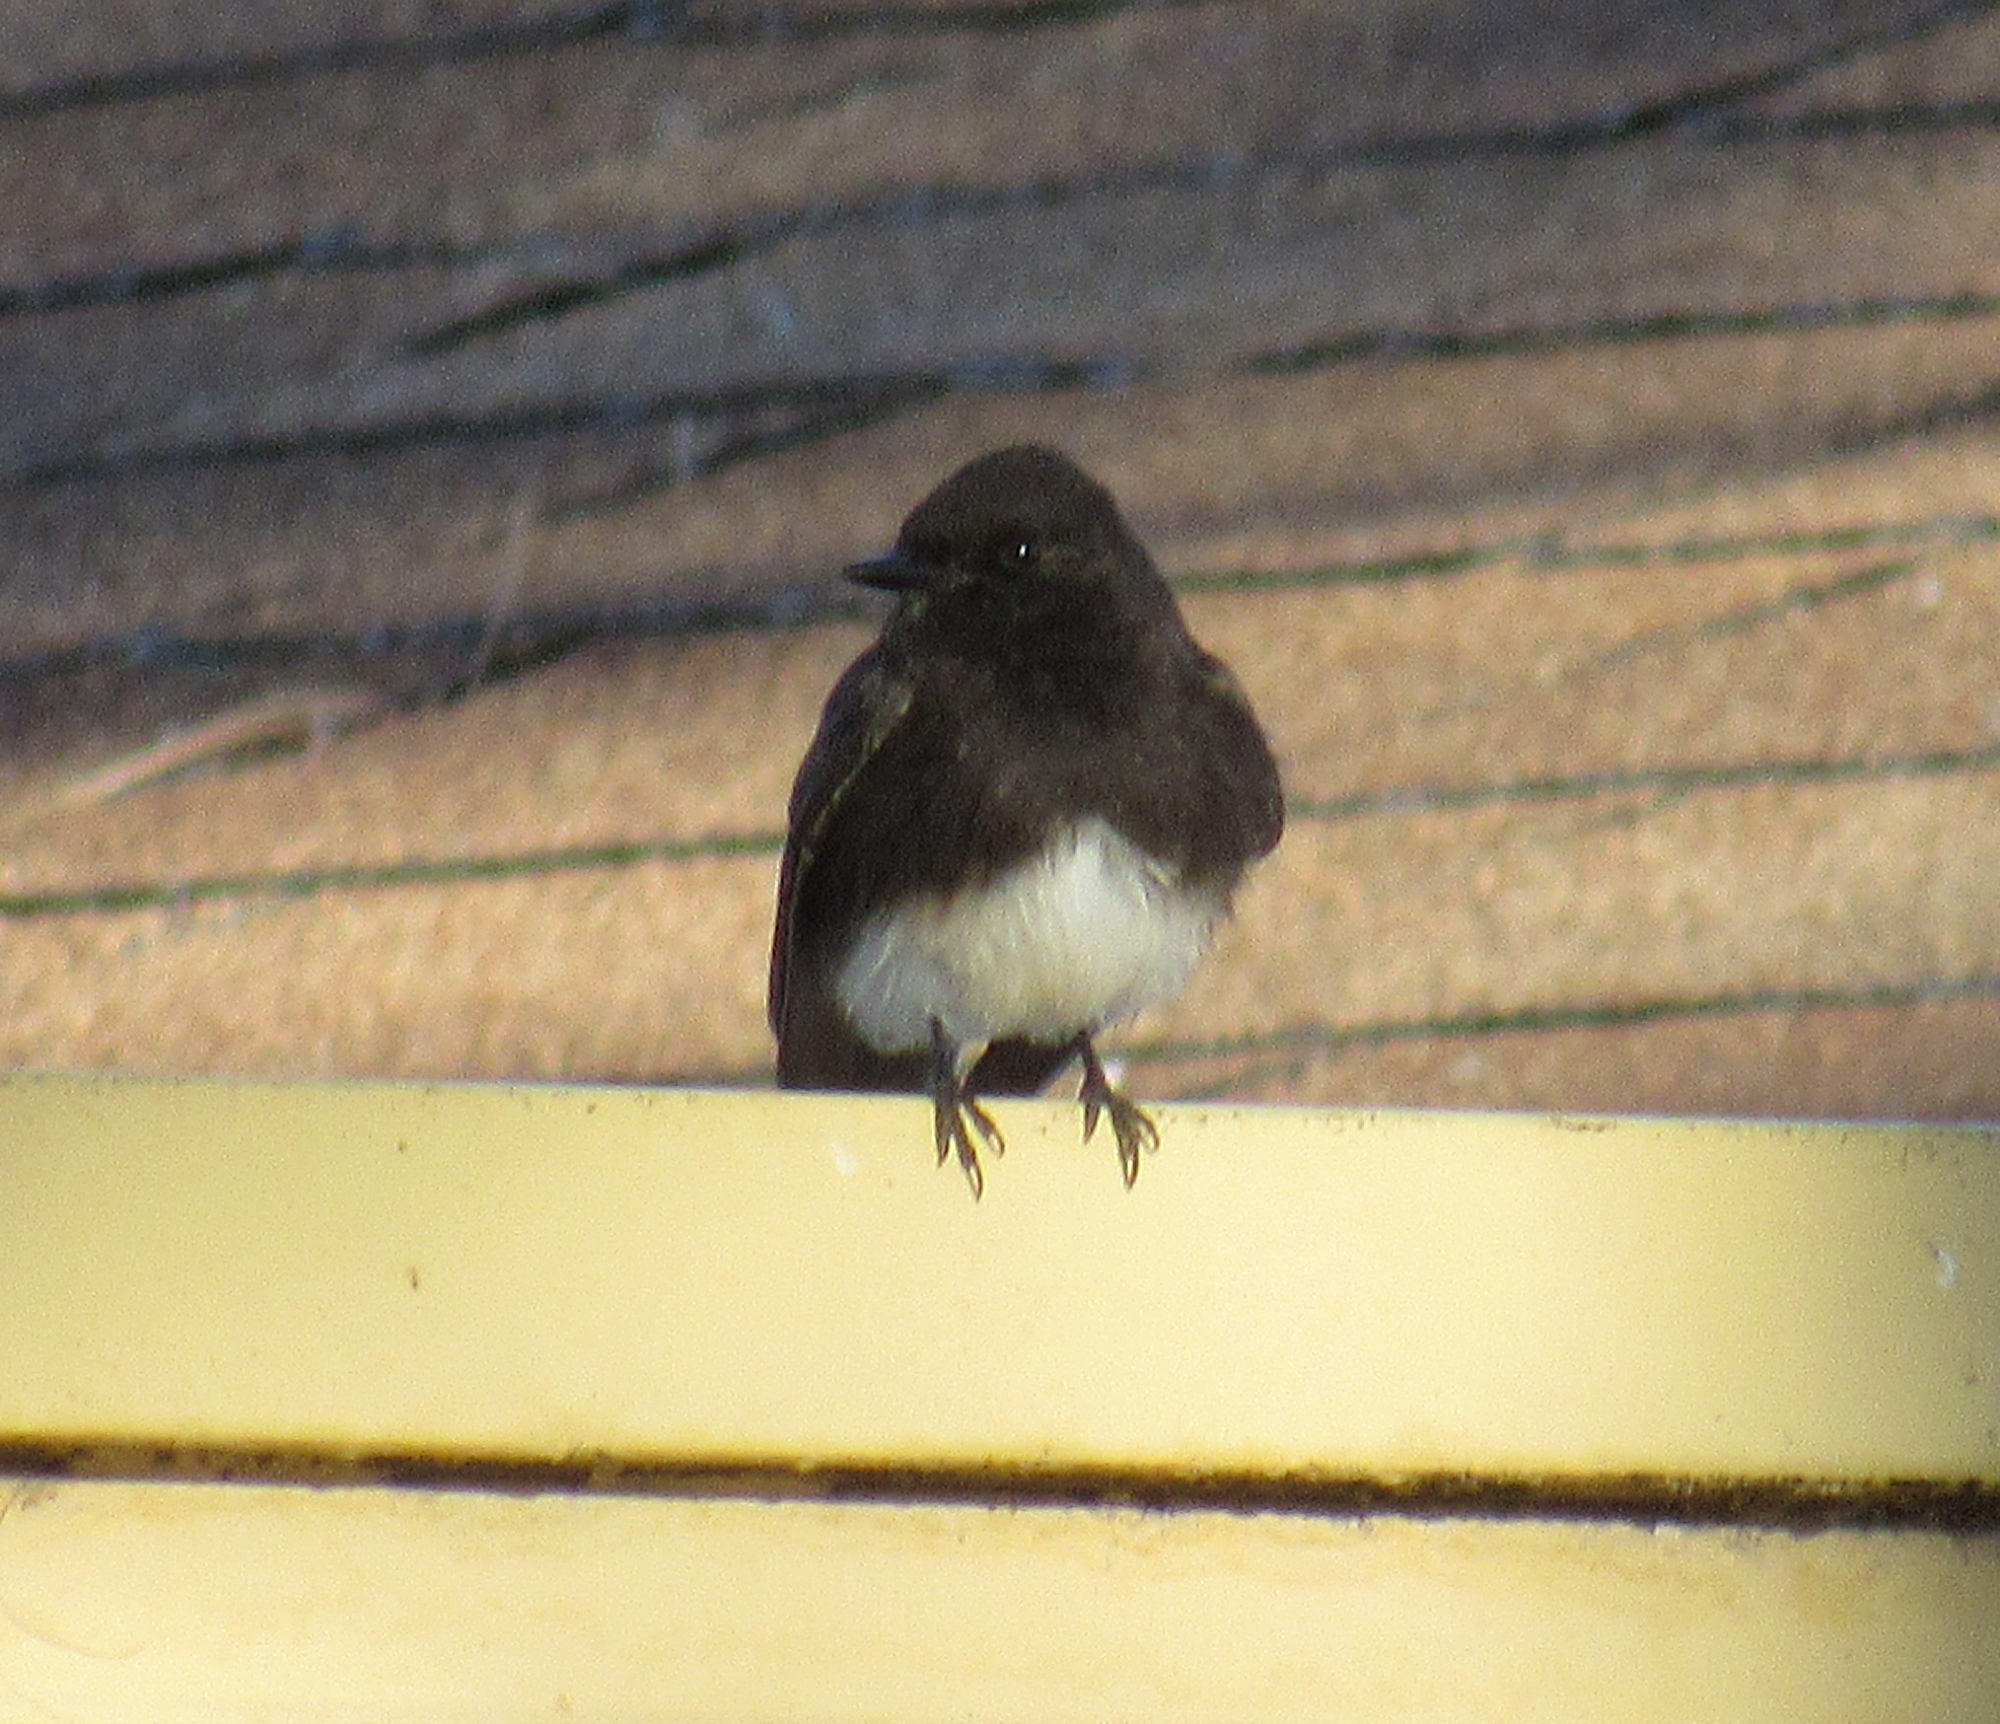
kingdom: Animalia
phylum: Chordata
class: Aves
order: Passeriformes
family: Tyrannidae
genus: Sayornis
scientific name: Sayornis nigricans
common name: Black phoebe
